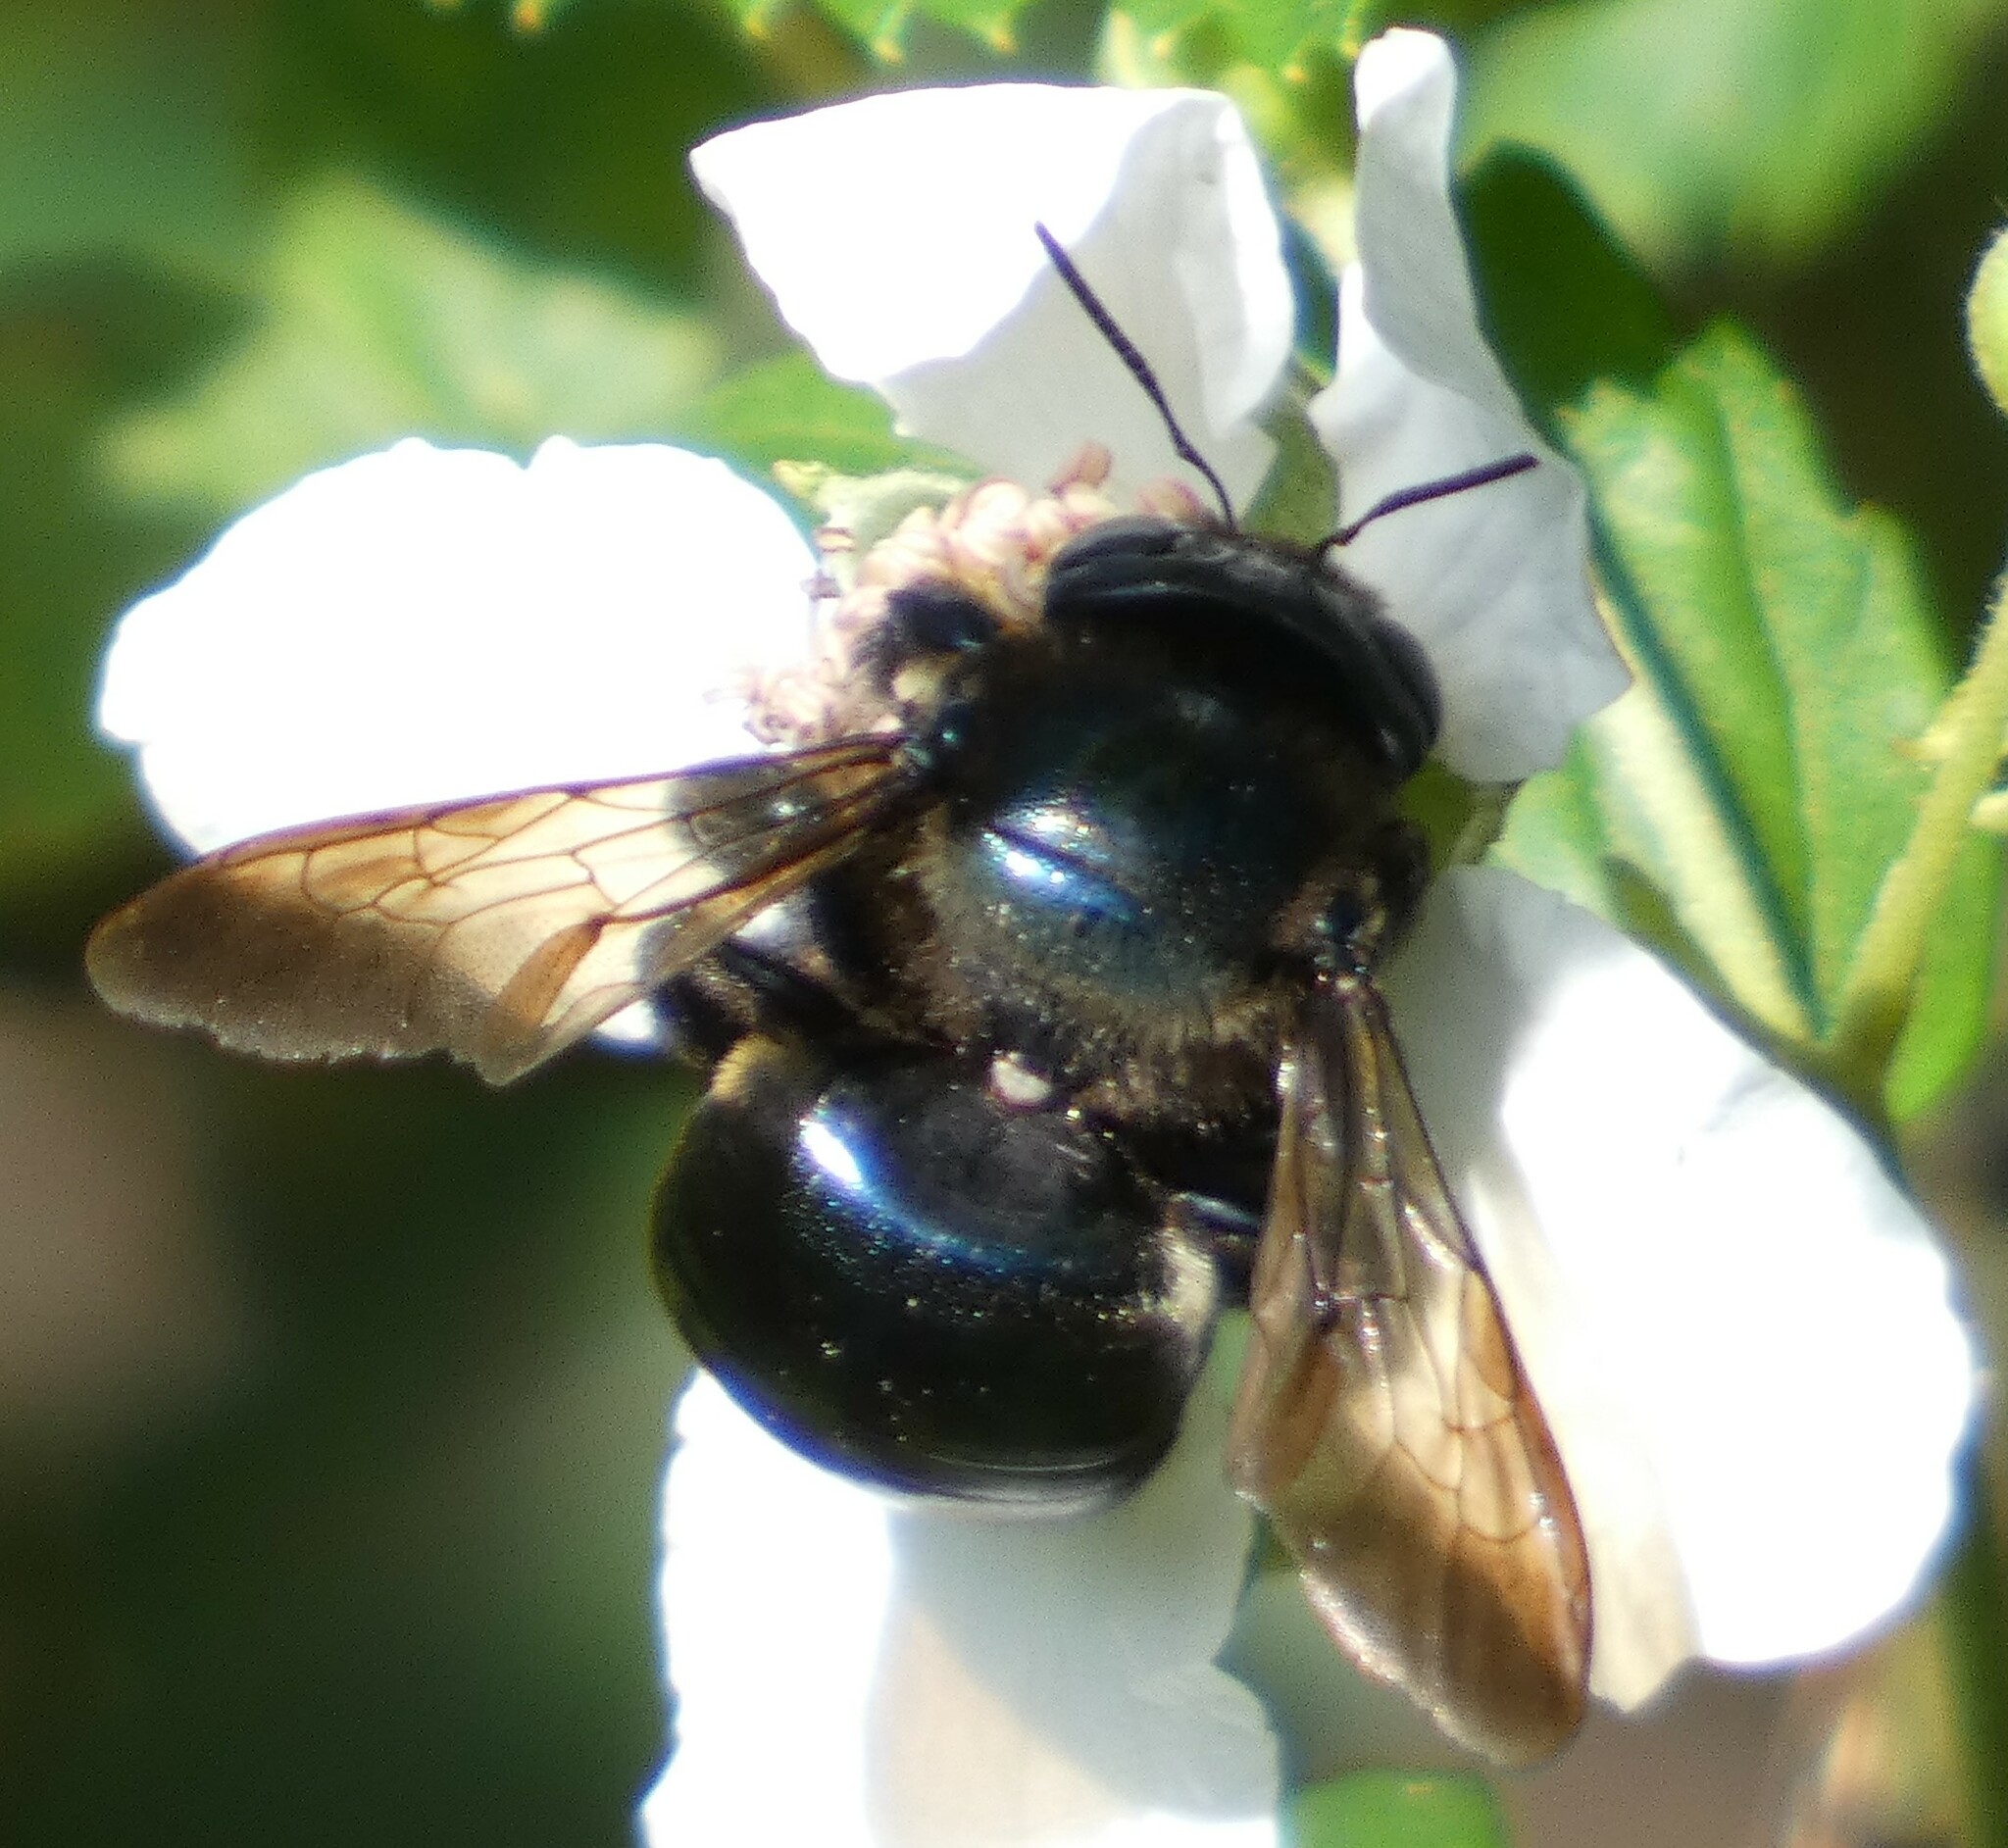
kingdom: Animalia
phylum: Arthropoda
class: Insecta
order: Hymenoptera
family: Apidae
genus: Xylocopa
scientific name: Xylocopa micans
